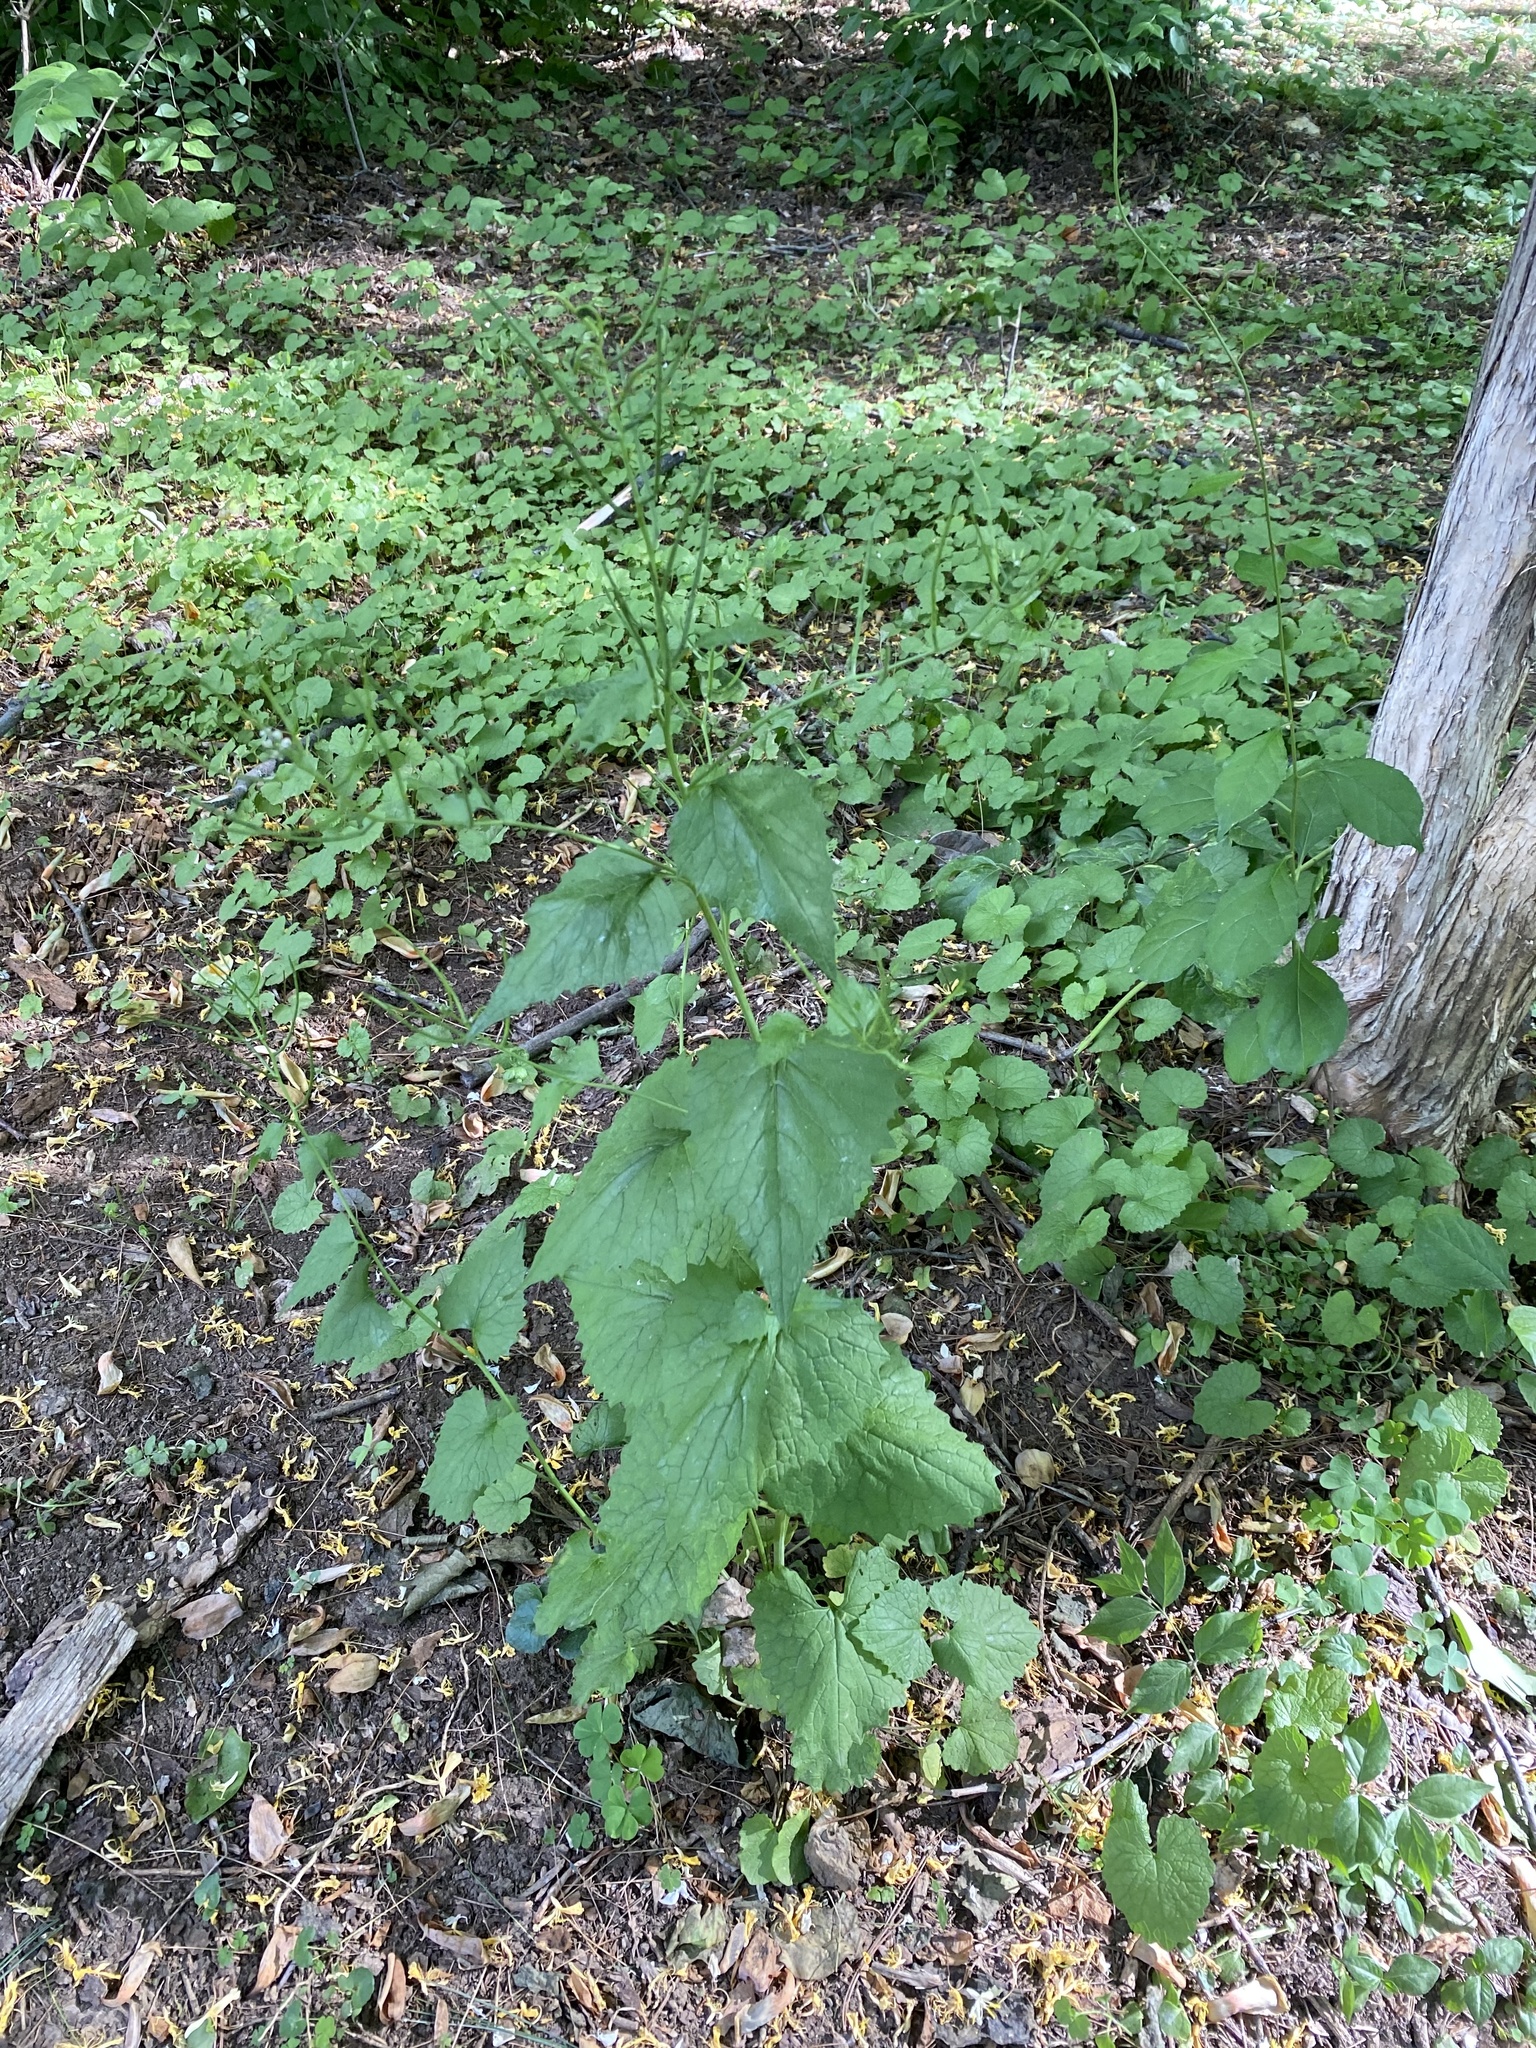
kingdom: Plantae
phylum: Tracheophyta
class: Magnoliopsida
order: Brassicales
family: Brassicaceae
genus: Alliaria
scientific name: Alliaria petiolata
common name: Garlic mustard
